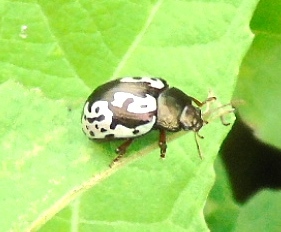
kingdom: Animalia
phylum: Arthropoda
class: Insecta
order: Coleoptera
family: Chrysomelidae
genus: Calligrapha
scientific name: Calligrapha intermedia
